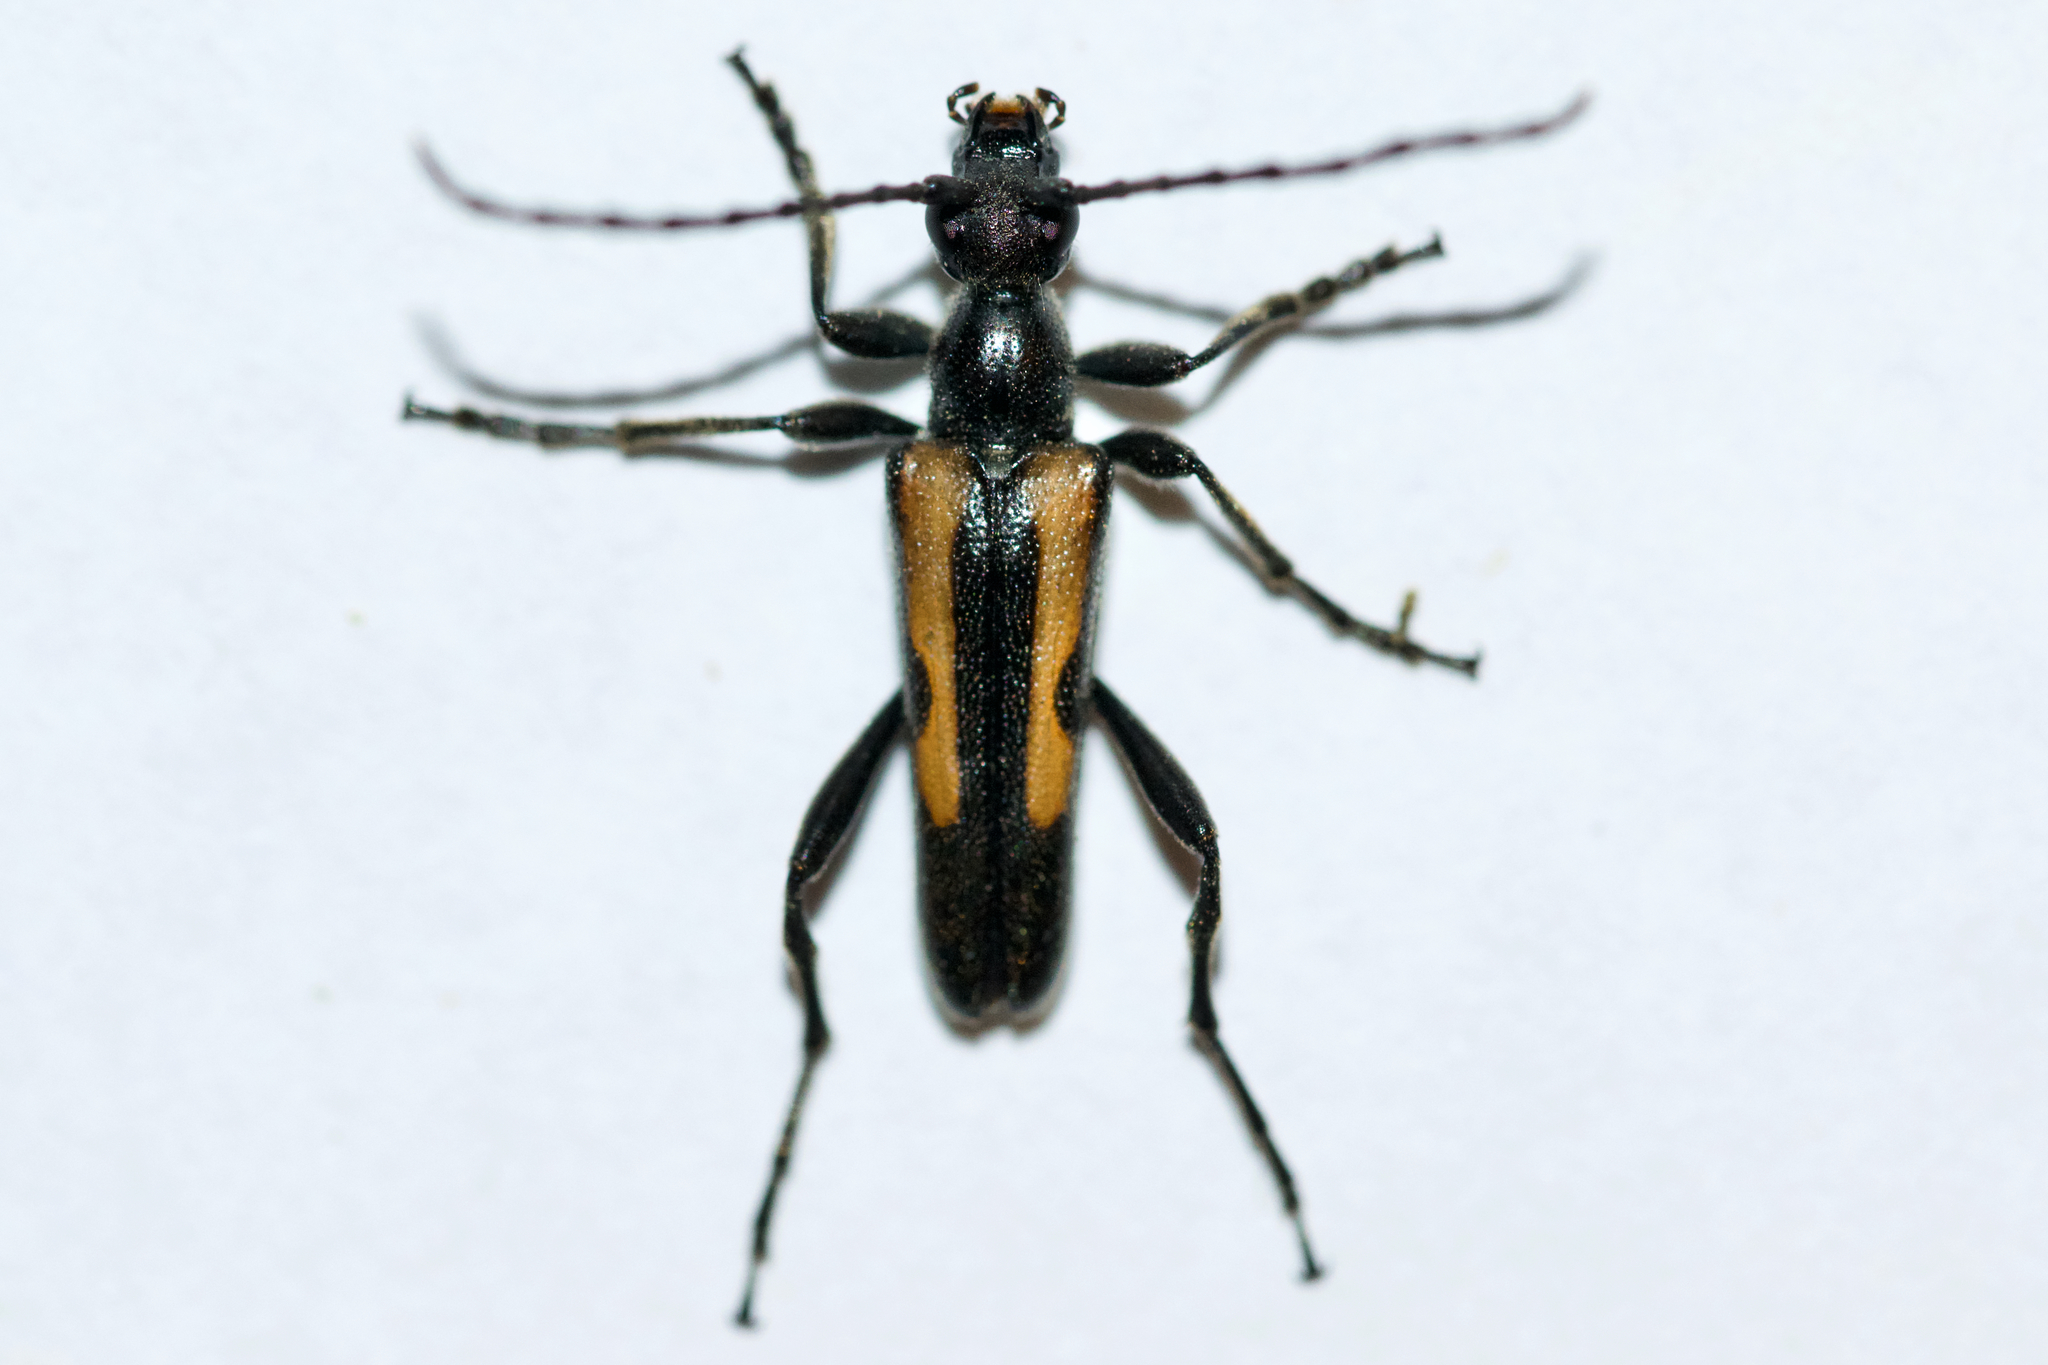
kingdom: Animalia
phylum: Arthropoda
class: Insecta
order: Coleoptera
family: Cerambycidae
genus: Strangalepta
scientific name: Strangalepta abbreviata
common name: Strangalepta flower longhorn beetle
